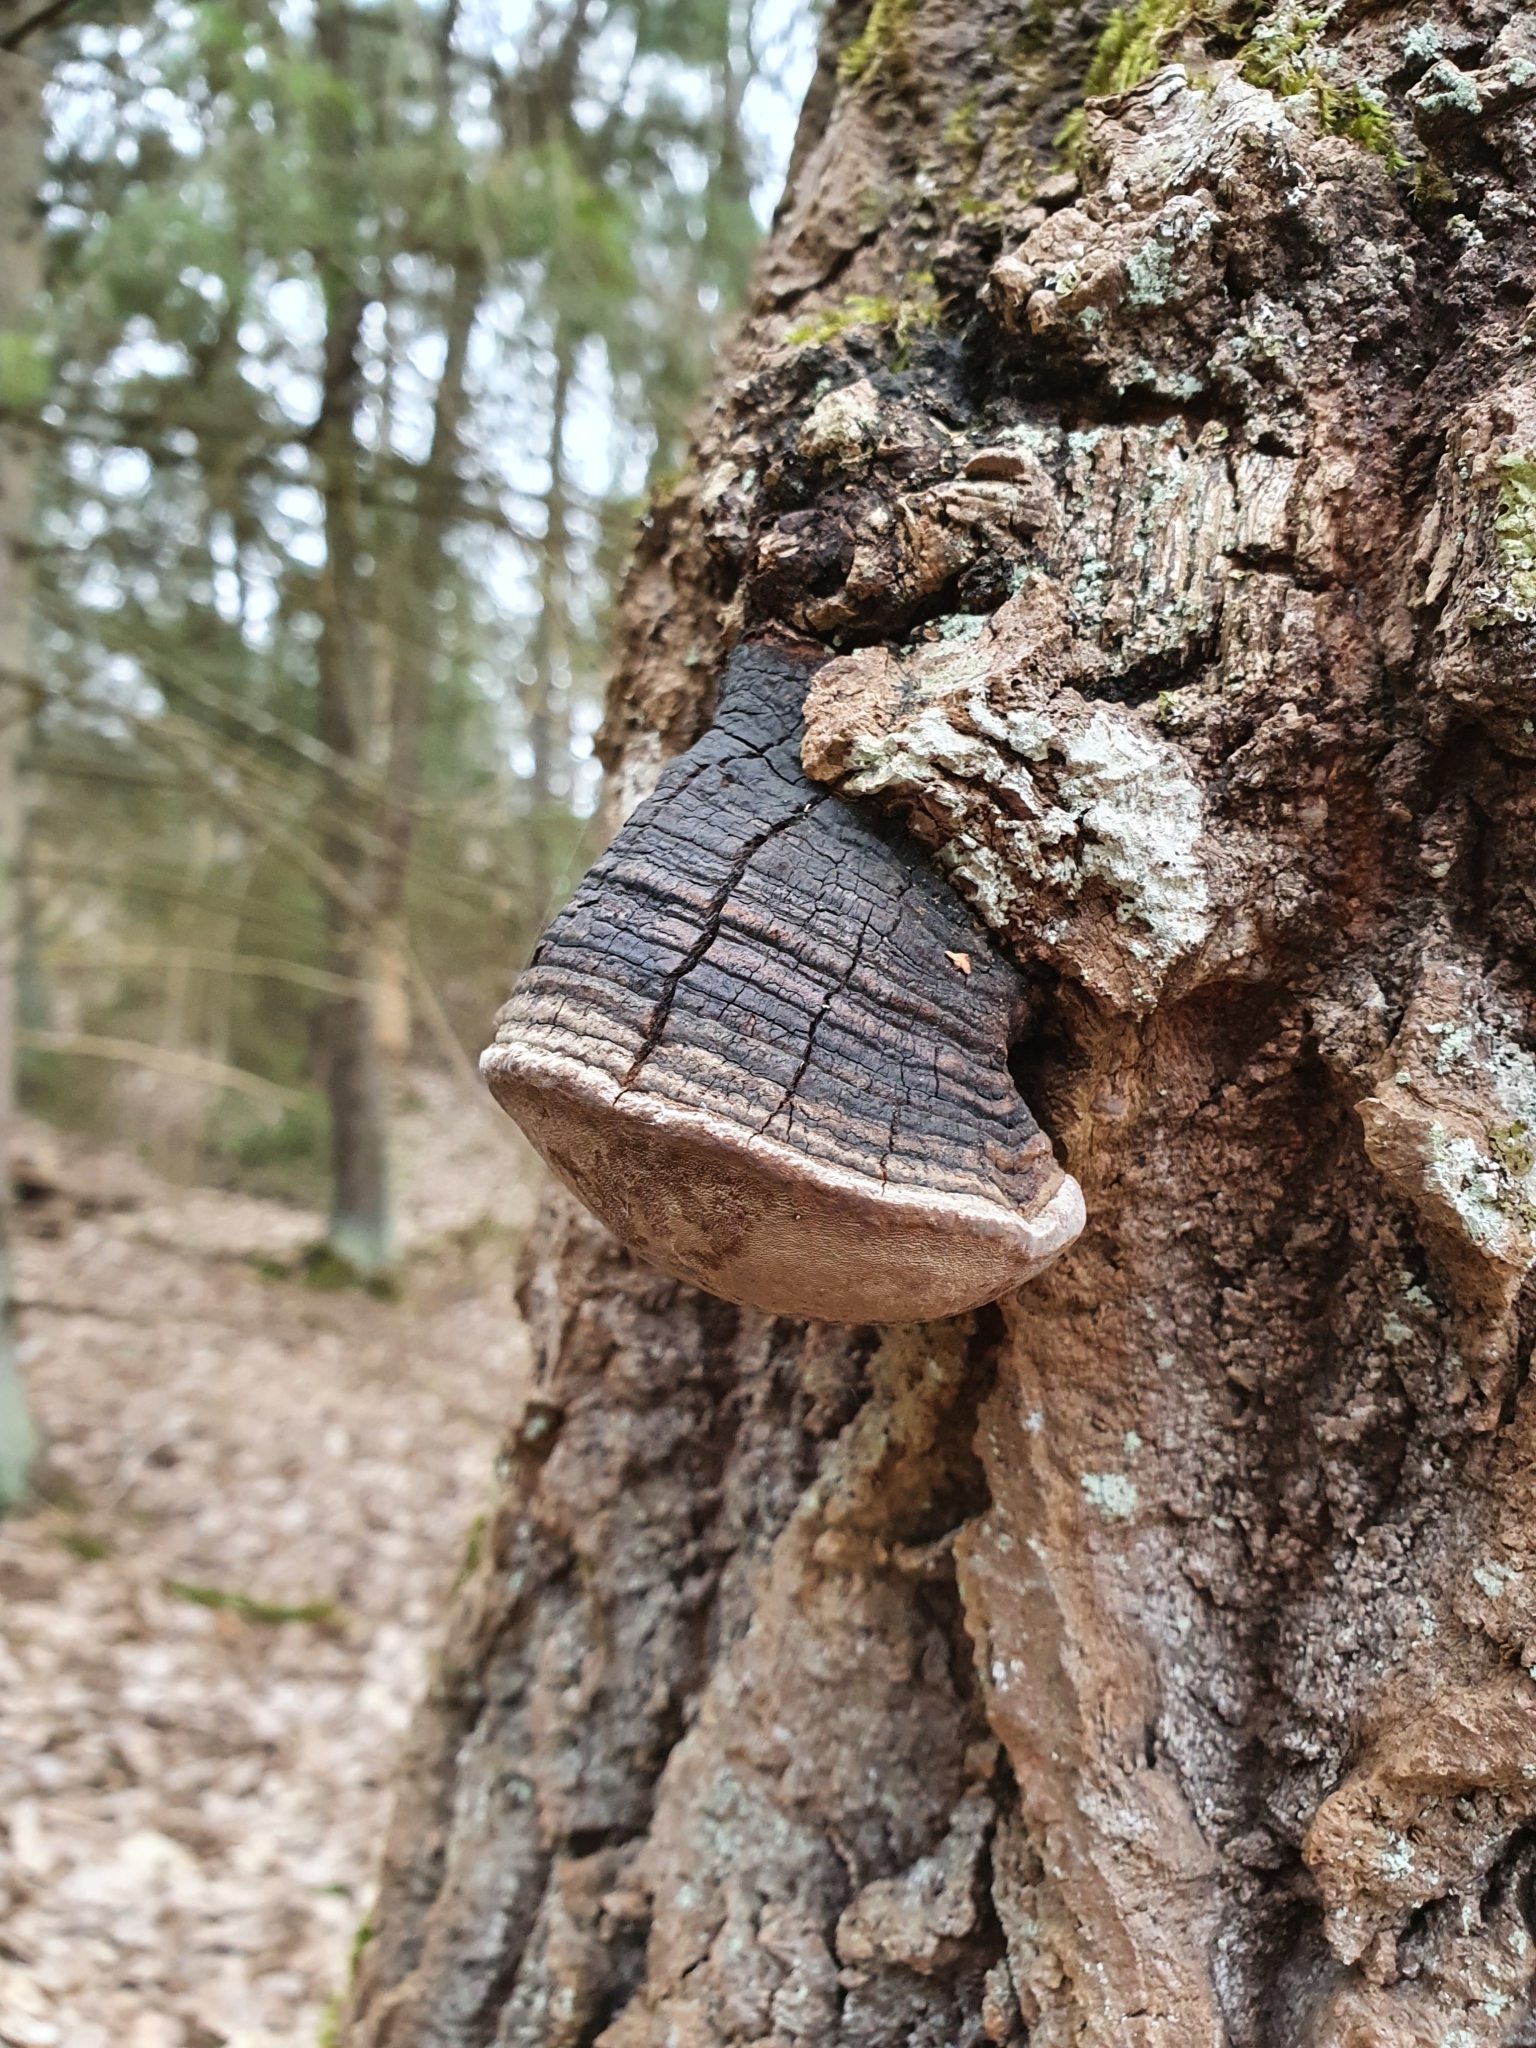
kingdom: Fungi
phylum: Basidiomycota
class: Agaricomycetes
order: Hymenochaetales
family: Hymenochaetaceae
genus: Phellinus
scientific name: Phellinus tremulae
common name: Aspen bracket
